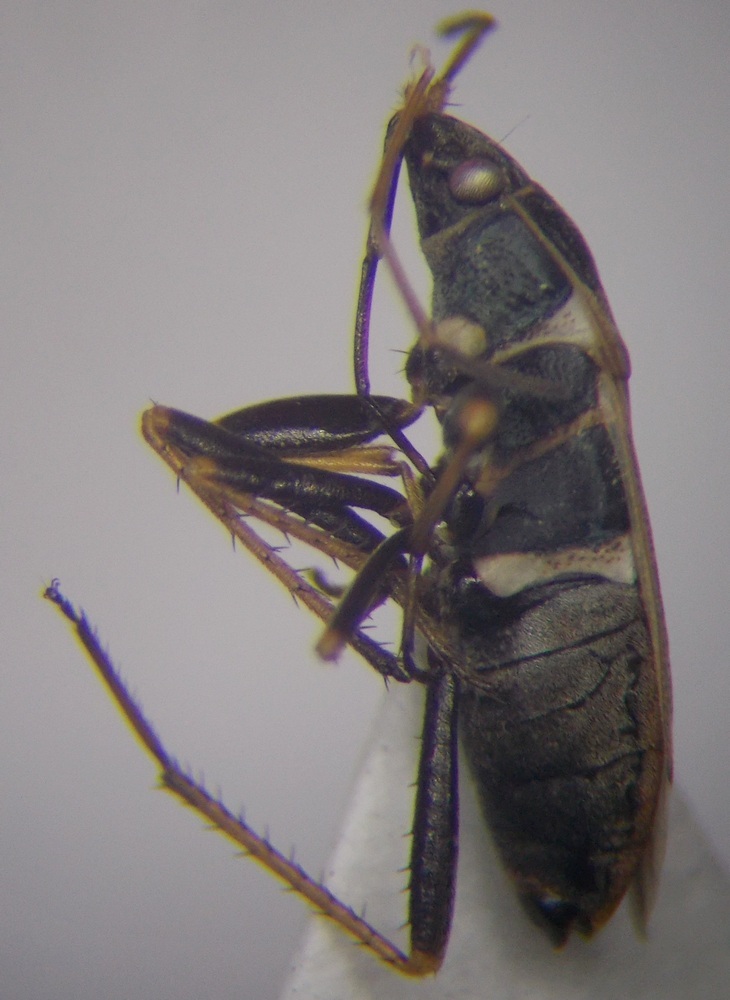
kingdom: Animalia
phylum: Arthropoda
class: Insecta
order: Hemiptera
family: Rhyparochromidae
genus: Xanthochilus
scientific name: Xanthochilus omissus
